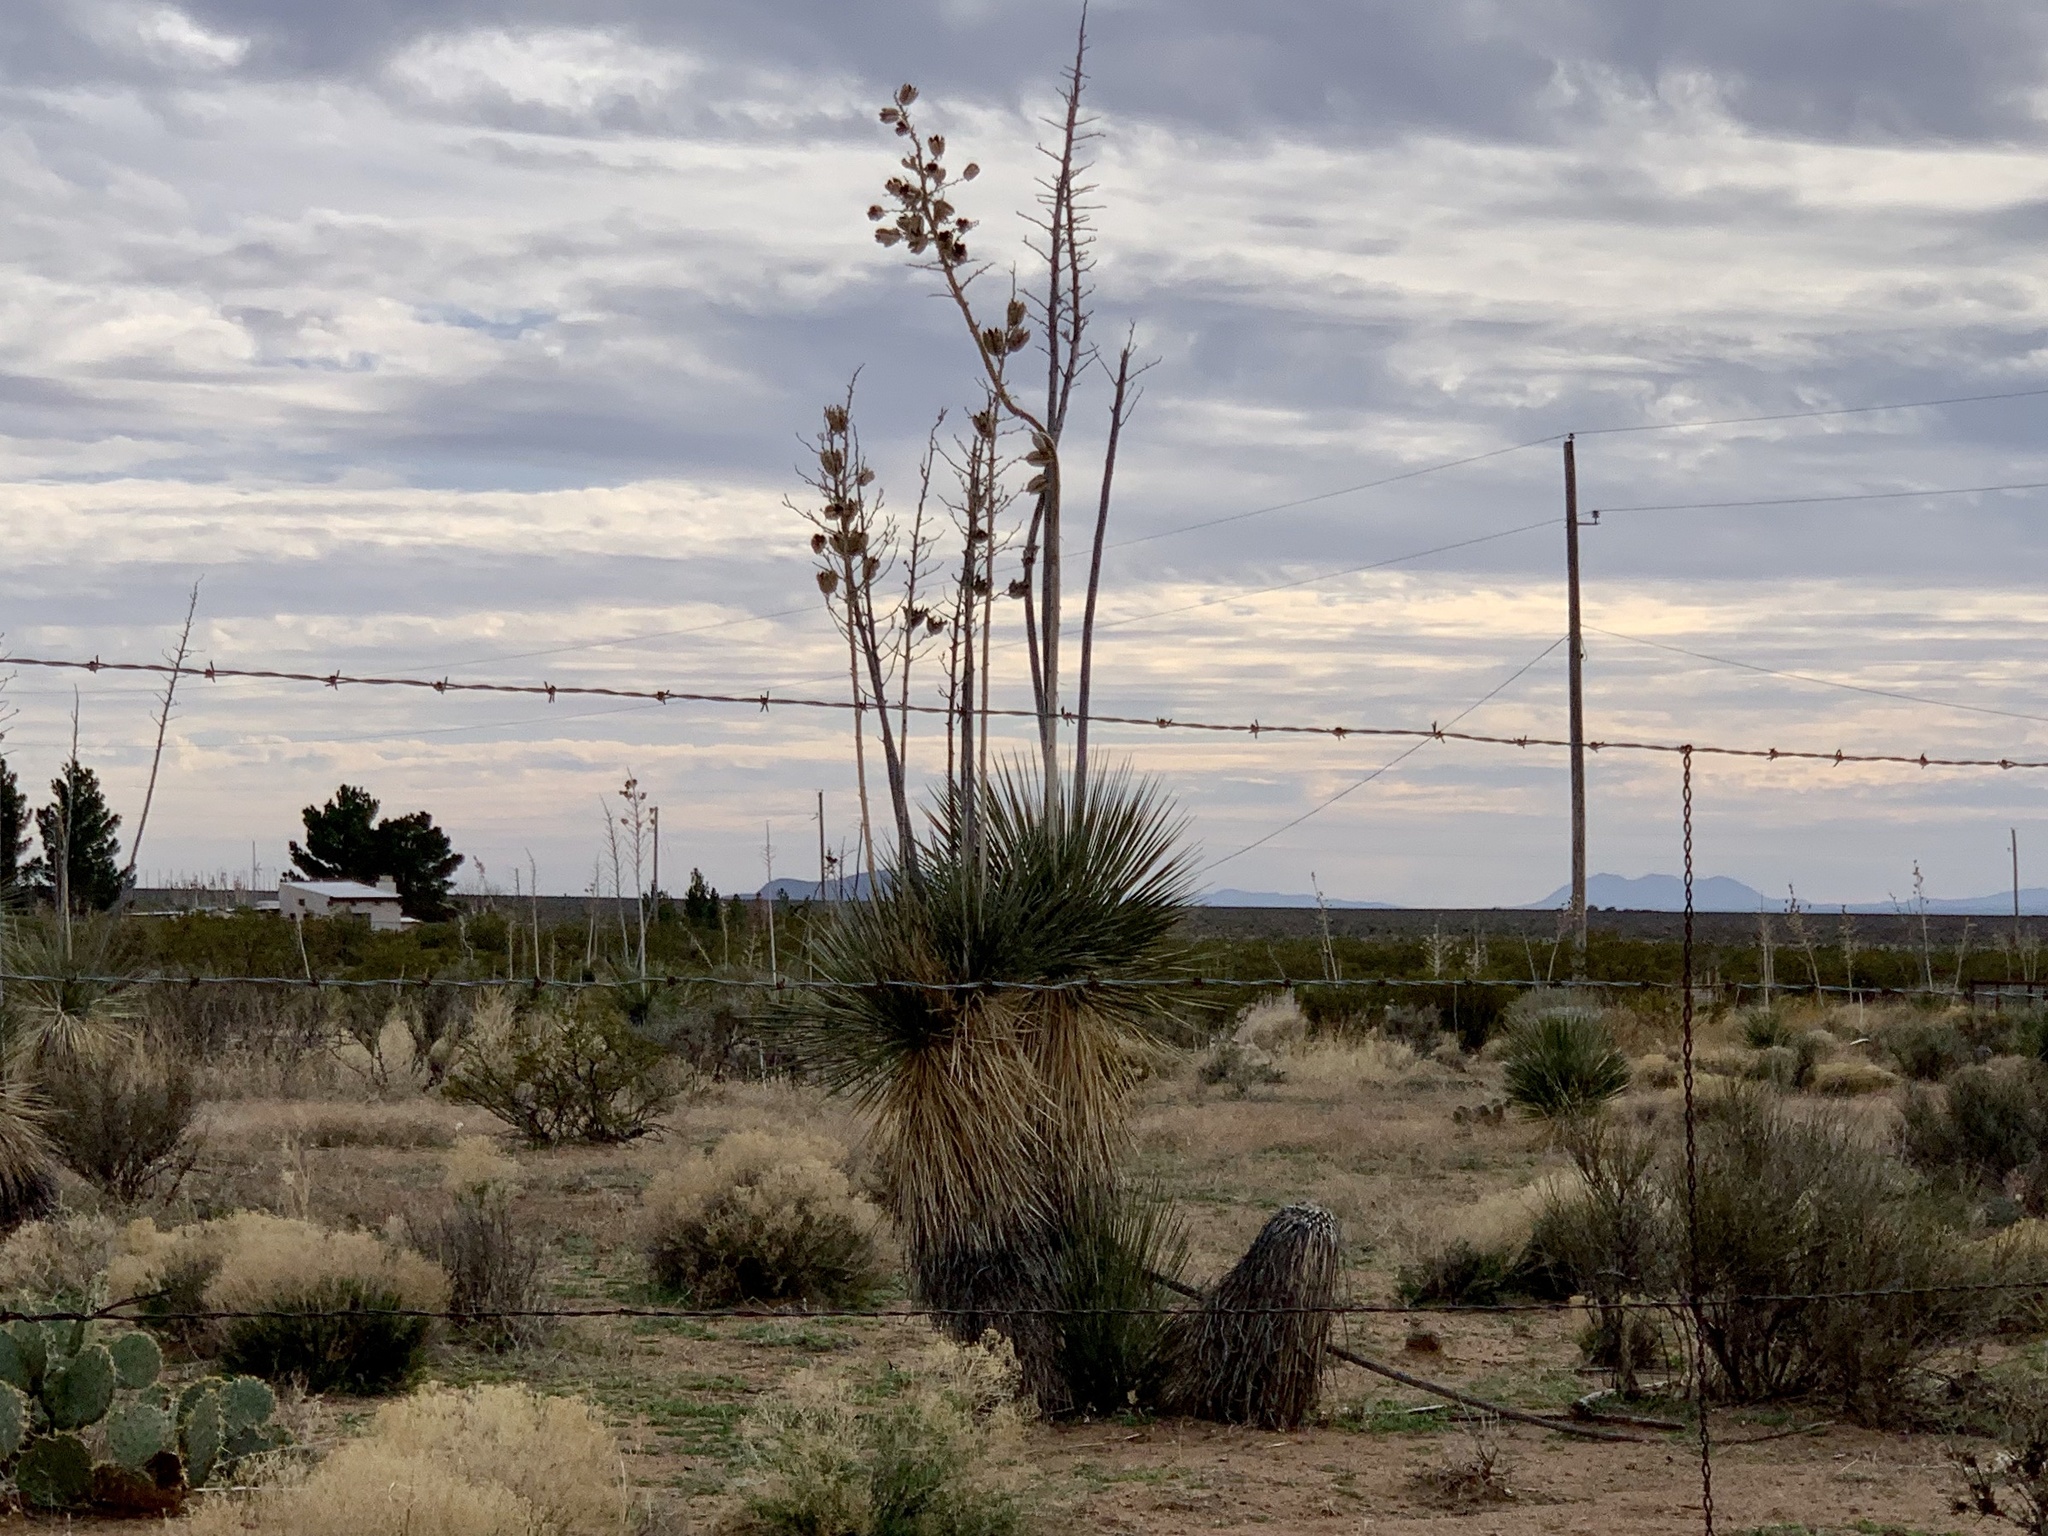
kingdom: Plantae
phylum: Tracheophyta
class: Liliopsida
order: Asparagales
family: Asparagaceae
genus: Yucca
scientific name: Yucca elata
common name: Palmella
